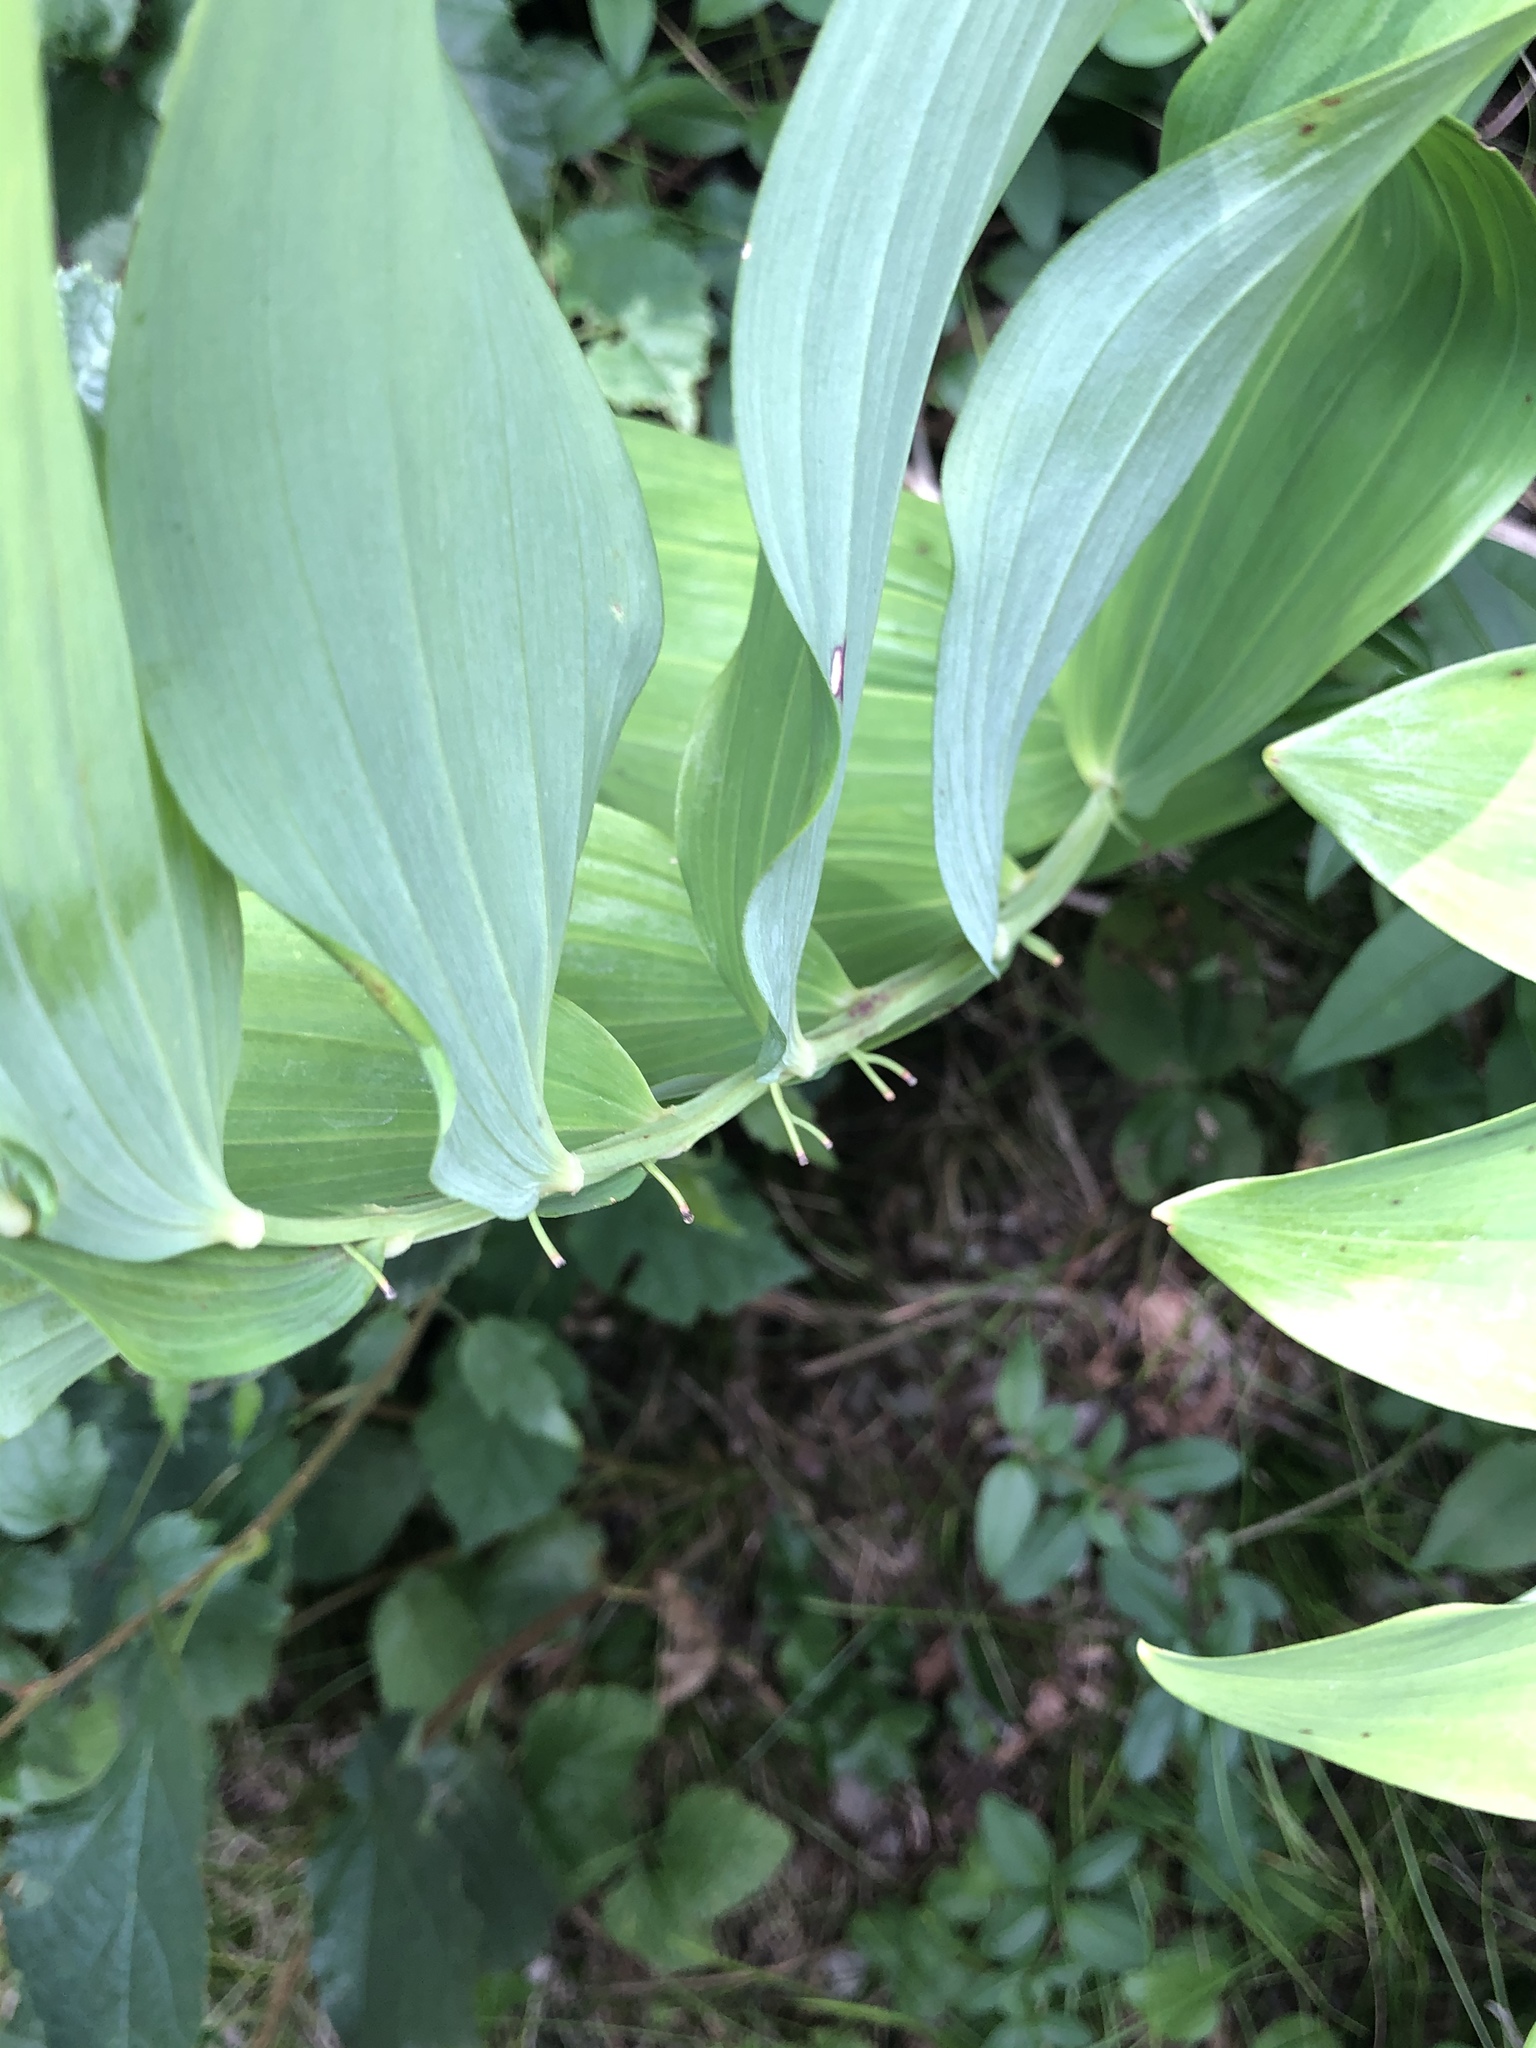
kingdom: Plantae
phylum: Tracheophyta
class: Liliopsida
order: Asparagales
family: Asparagaceae
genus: Polygonatum
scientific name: Polygonatum odoratum
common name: Angular solomon's-seal
